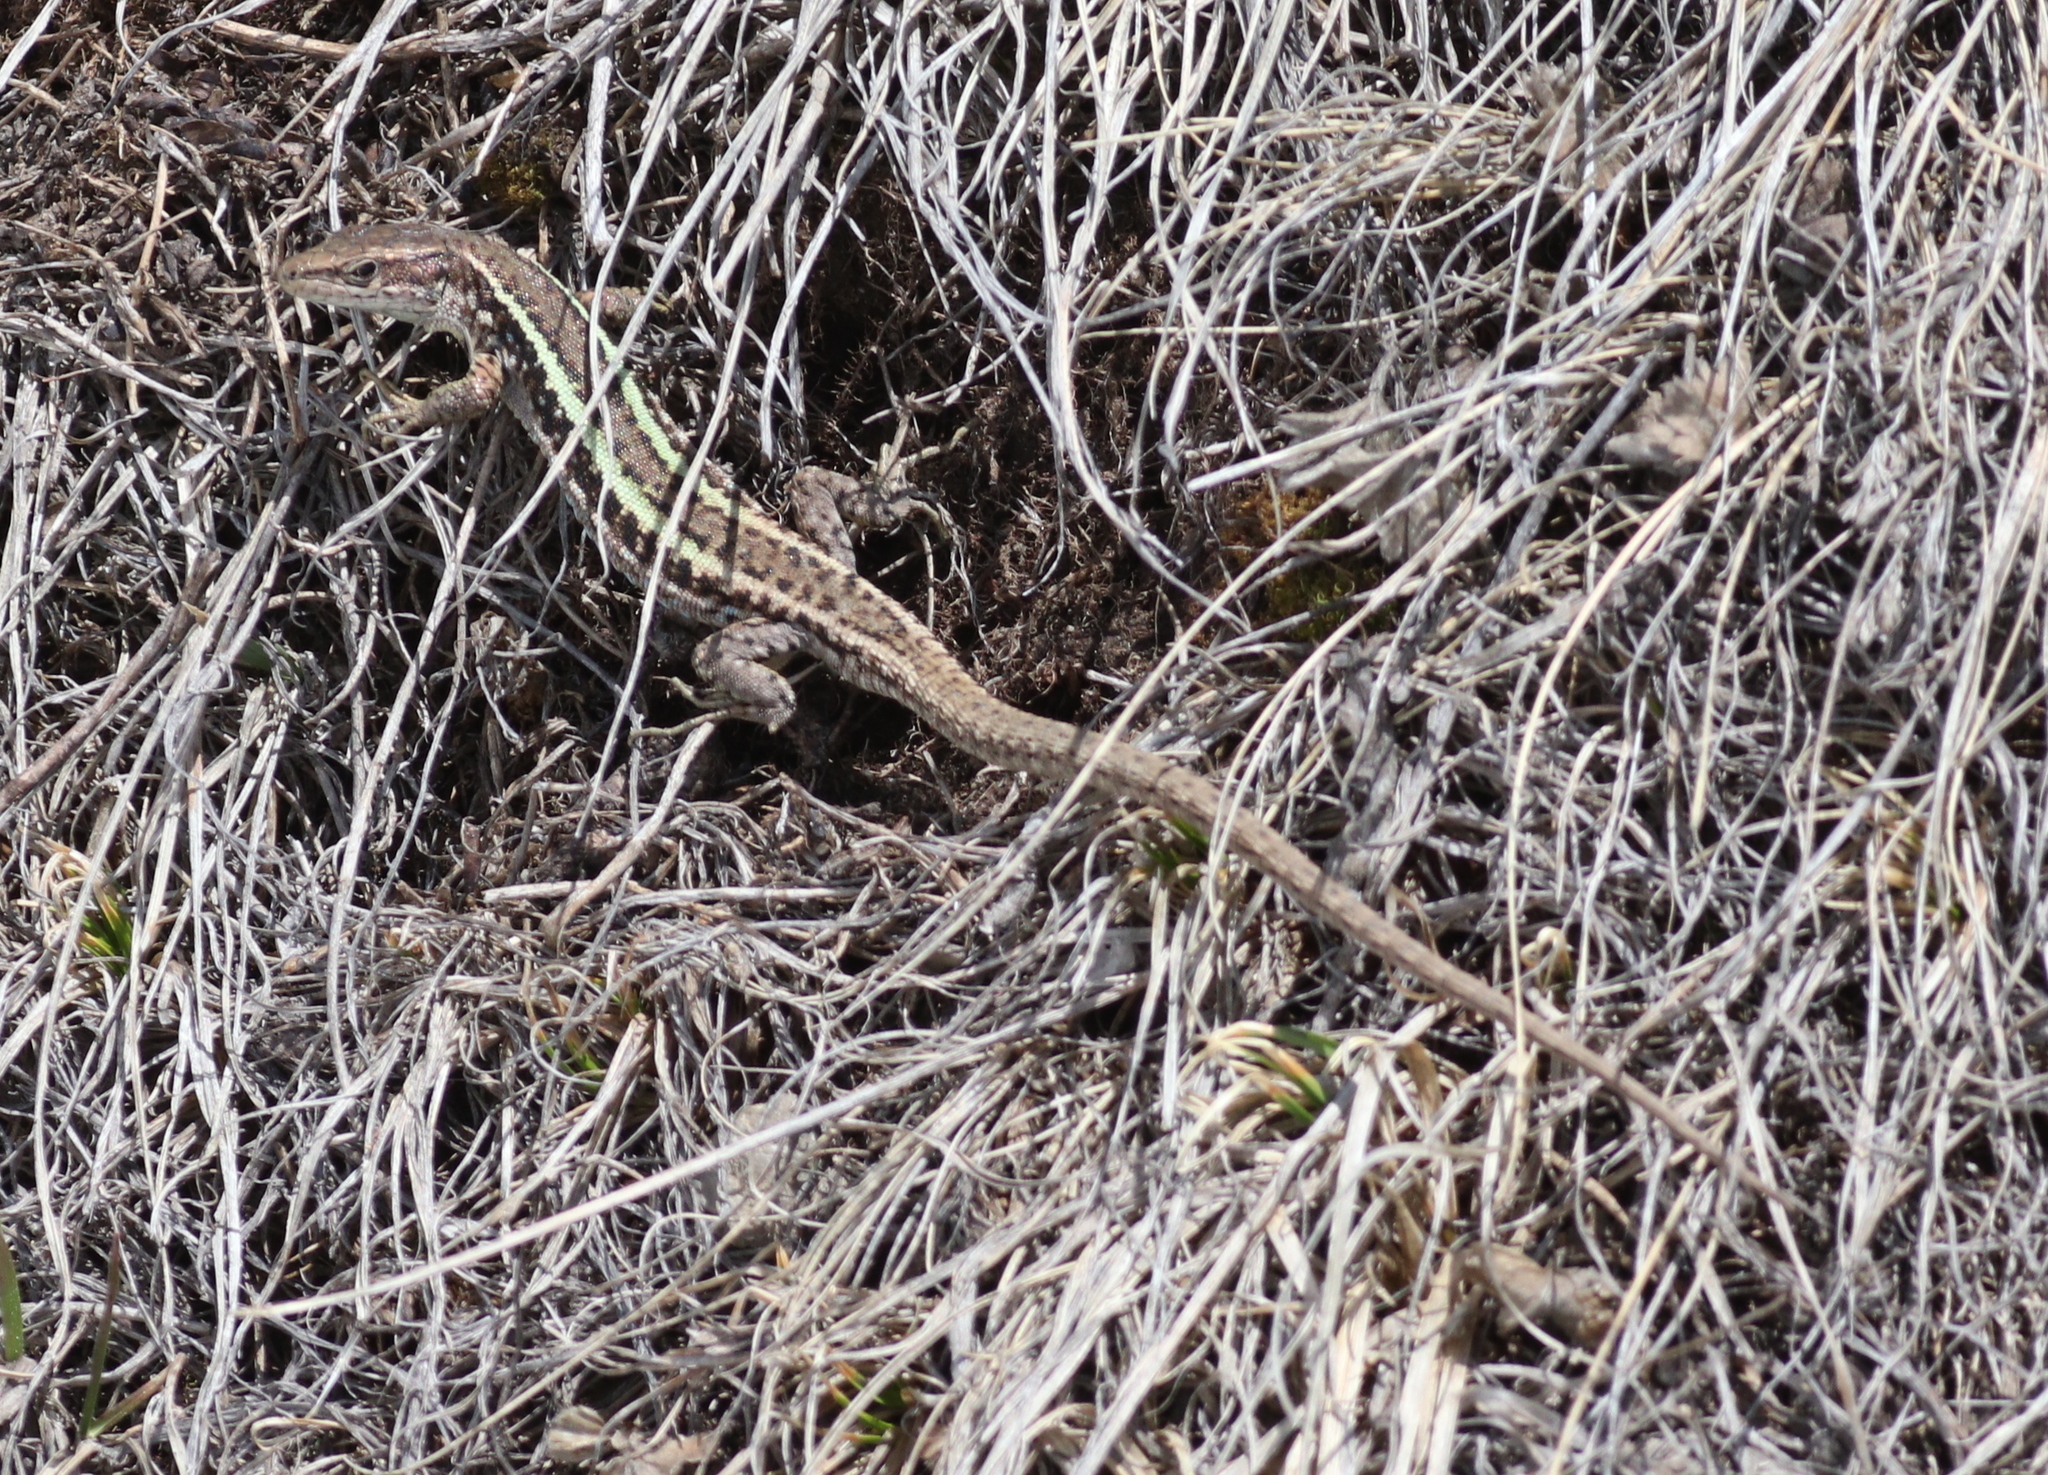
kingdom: Animalia
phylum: Chordata
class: Squamata
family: Lacertidae
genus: Darevskia
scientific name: Darevskia caucasica
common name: Caucasian llzard
